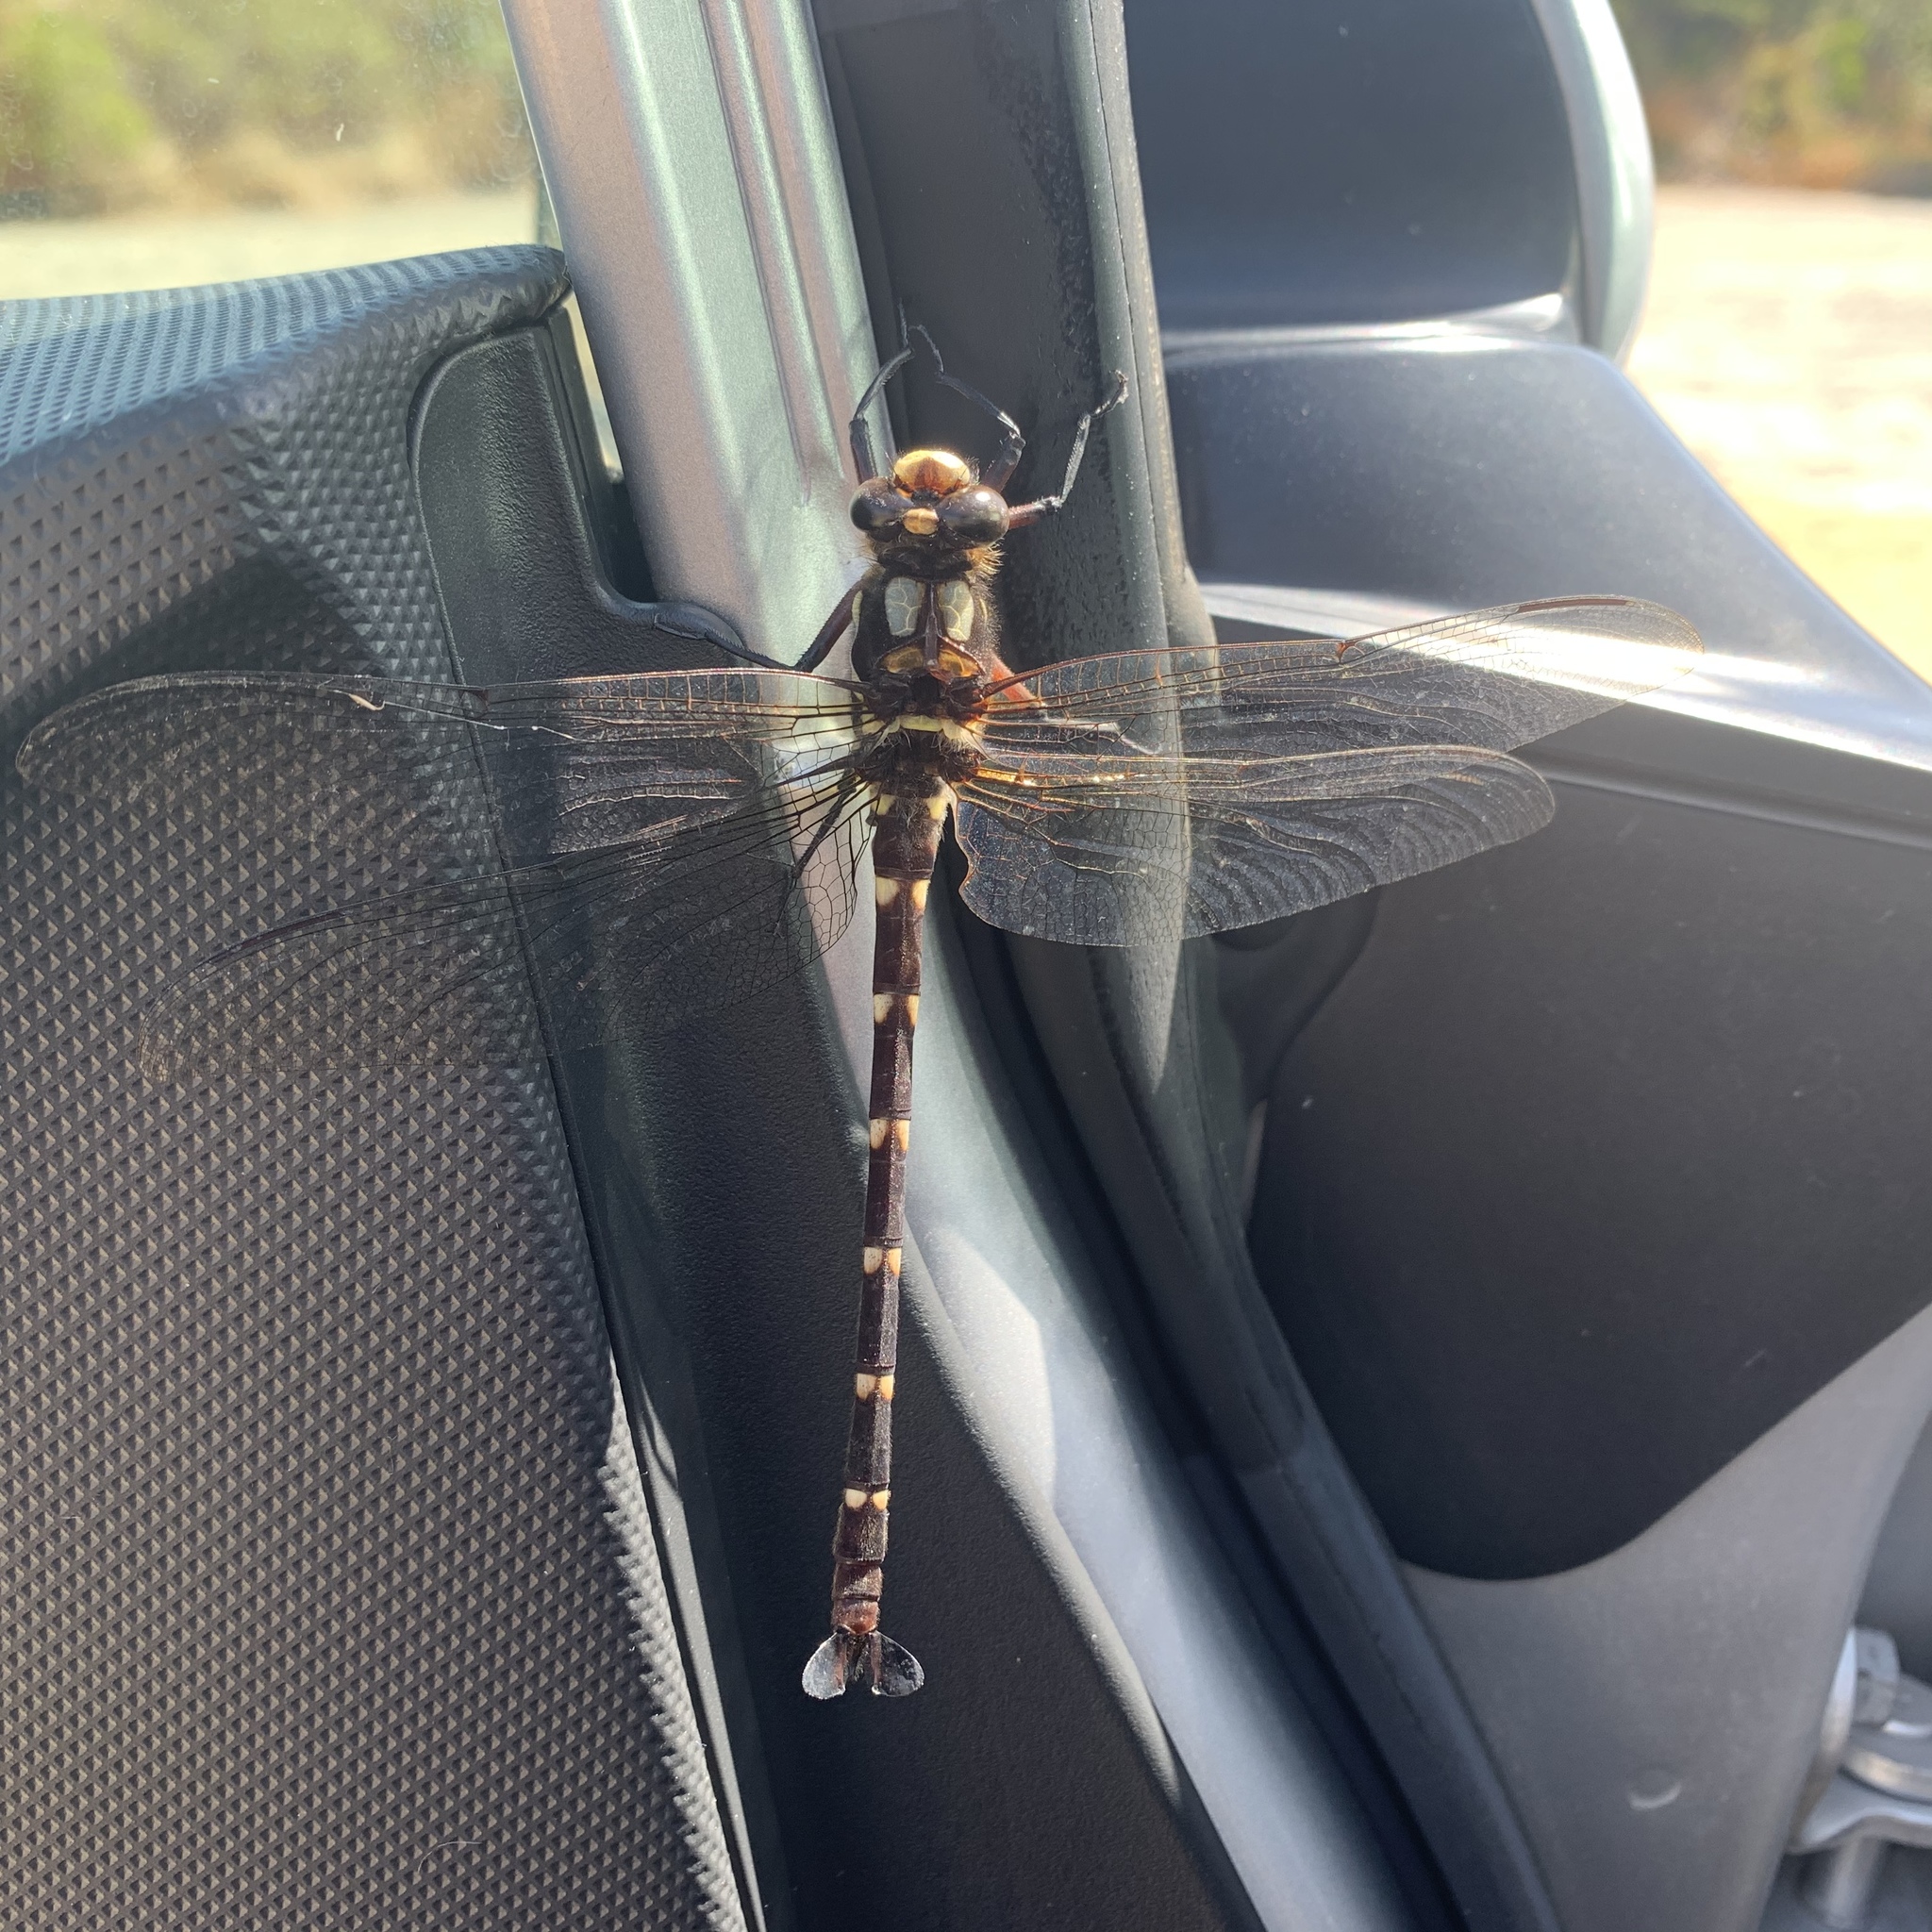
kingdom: Animalia
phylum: Arthropoda
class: Insecta
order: Odonata
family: Petaluridae
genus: Uropetala
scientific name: Uropetala carovei
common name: Bush giant dragonfly
